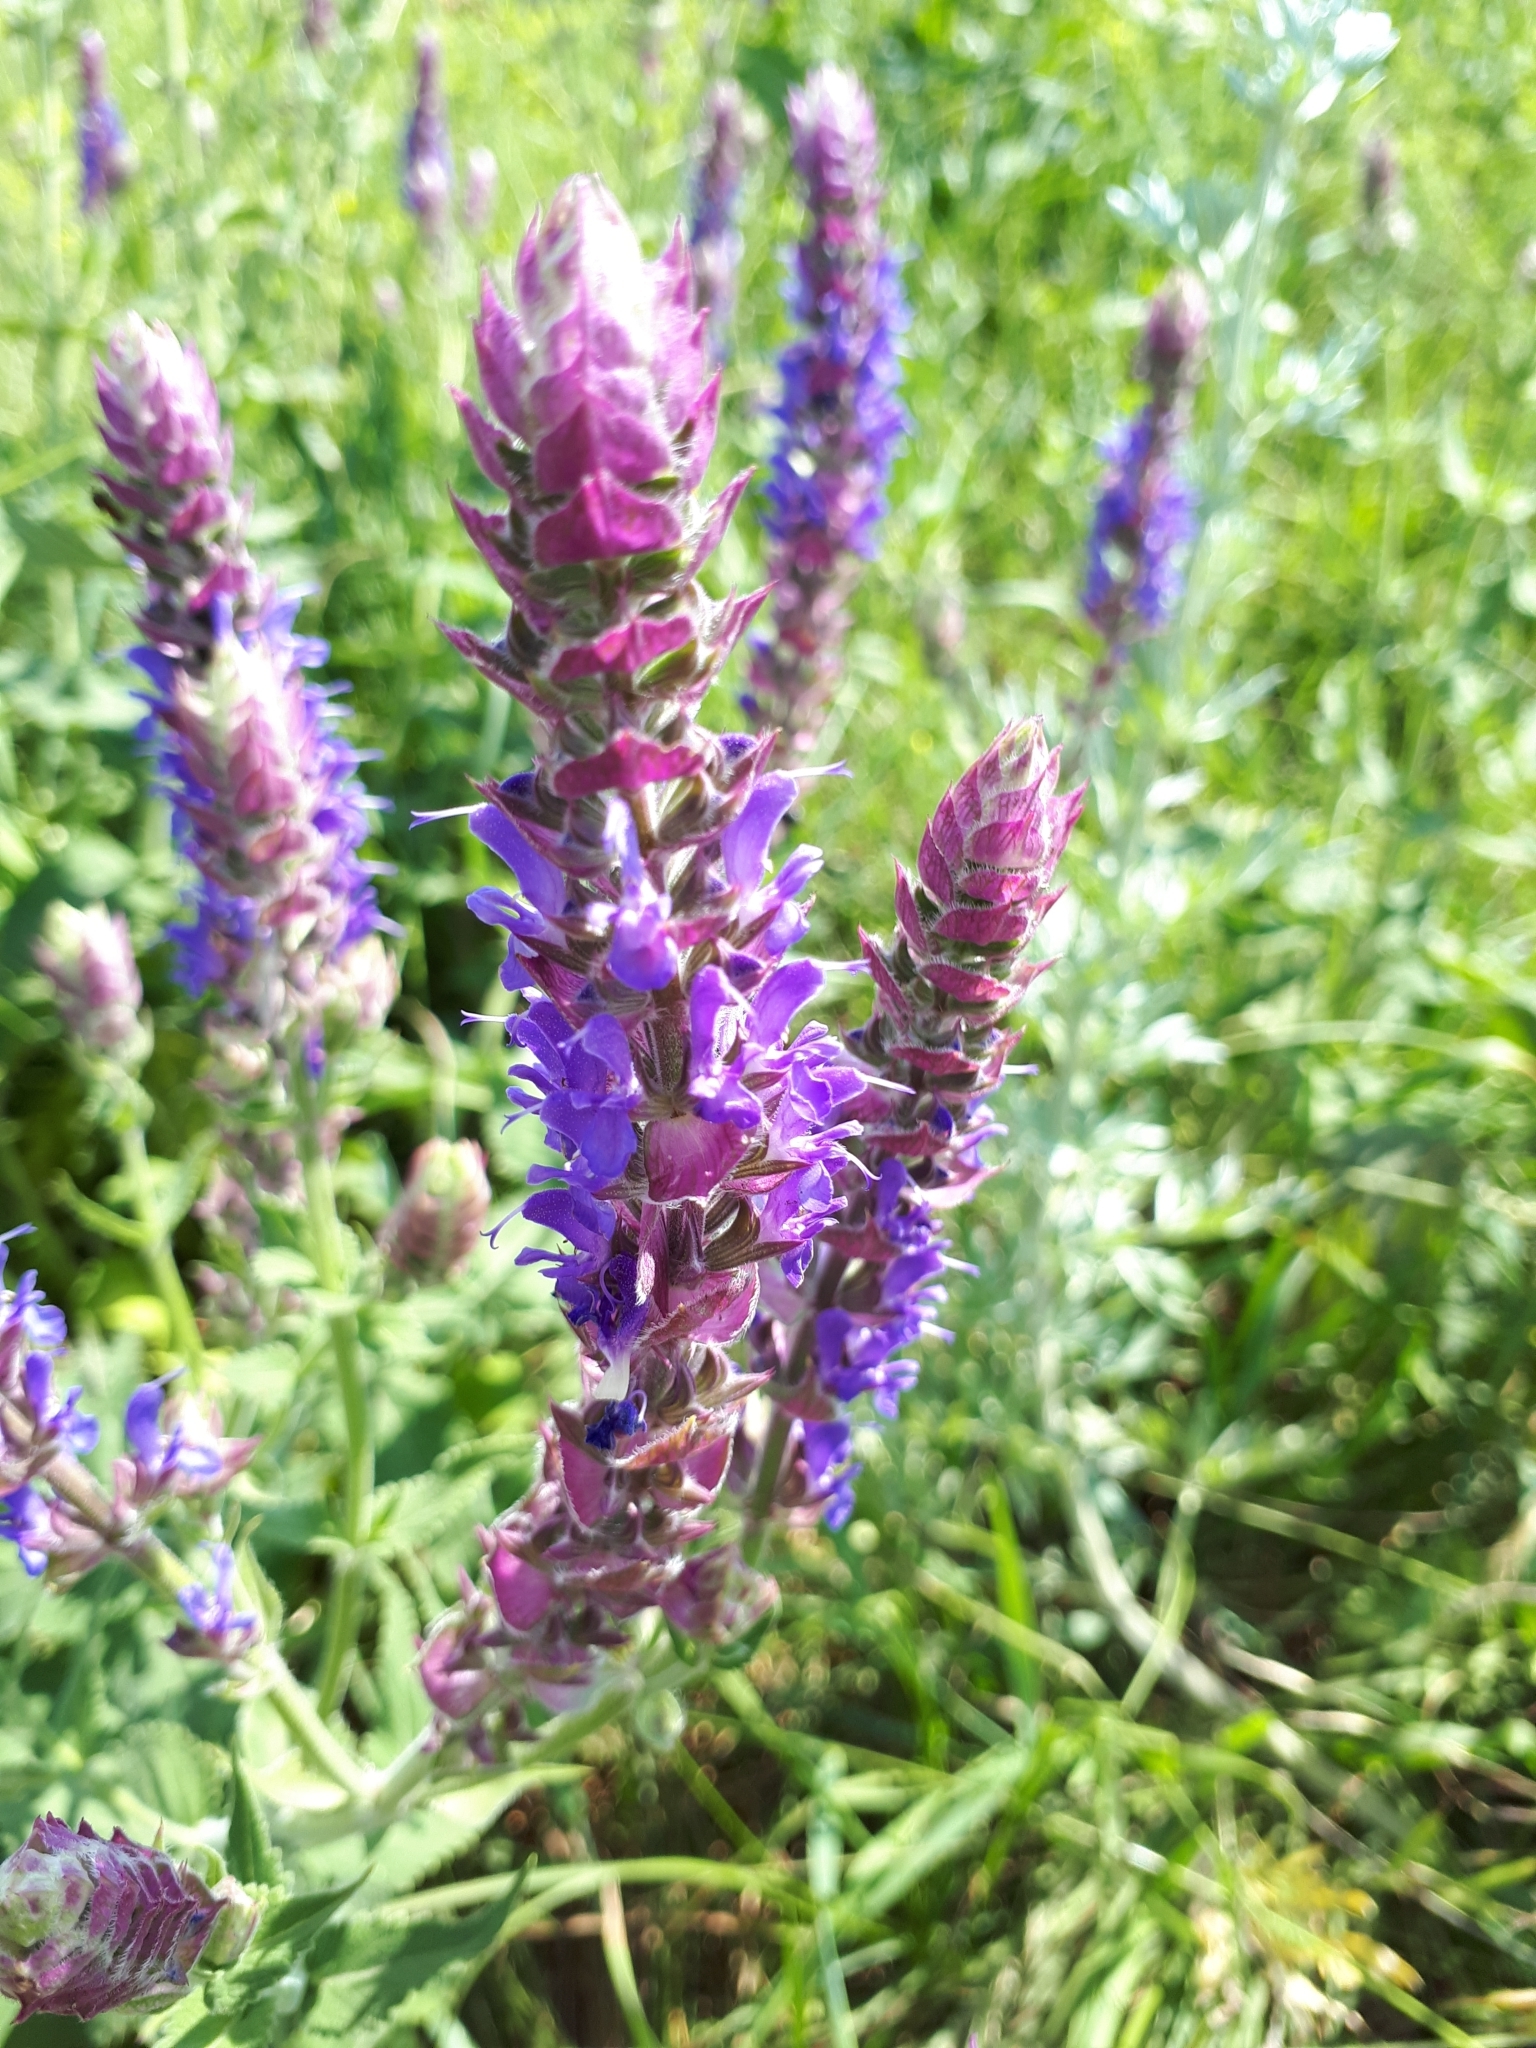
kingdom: Plantae
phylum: Tracheophyta
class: Magnoliopsida
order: Lamiales
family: Lamiaceae
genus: Salvia
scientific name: Salvia nemorosa
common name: Balkan clary
